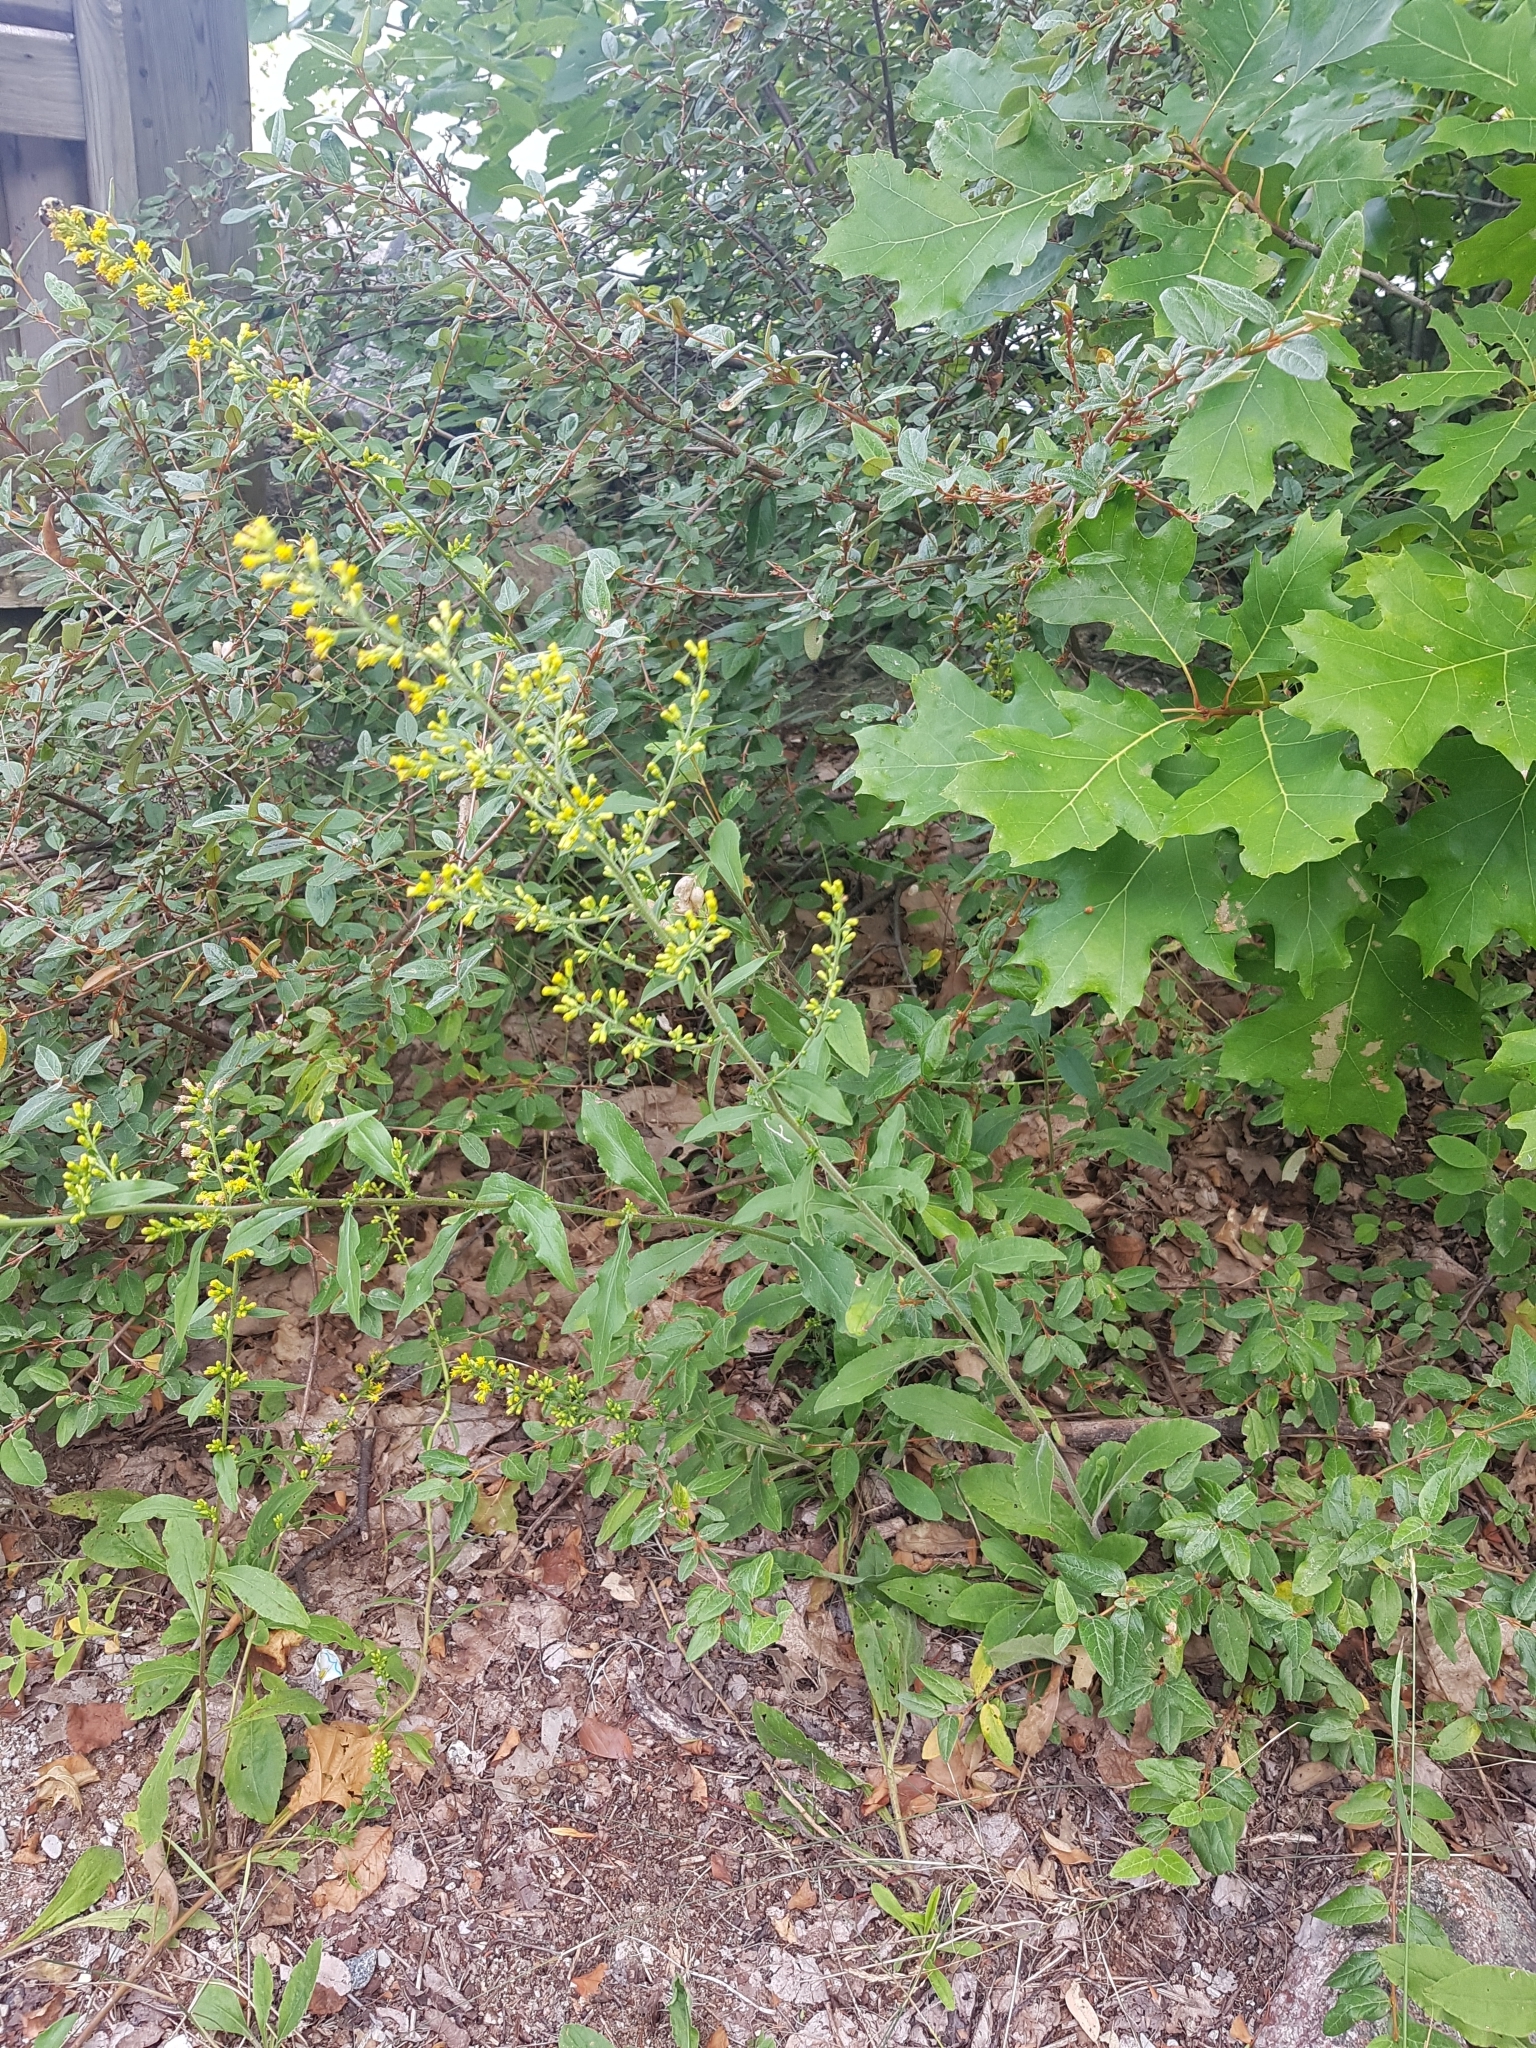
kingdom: Plantae
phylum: Tracheophyta
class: Magnoliopsida
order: Asterales
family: Asteraceae
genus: Solidago
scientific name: Solidago hispida
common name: Hairy goldenrod
